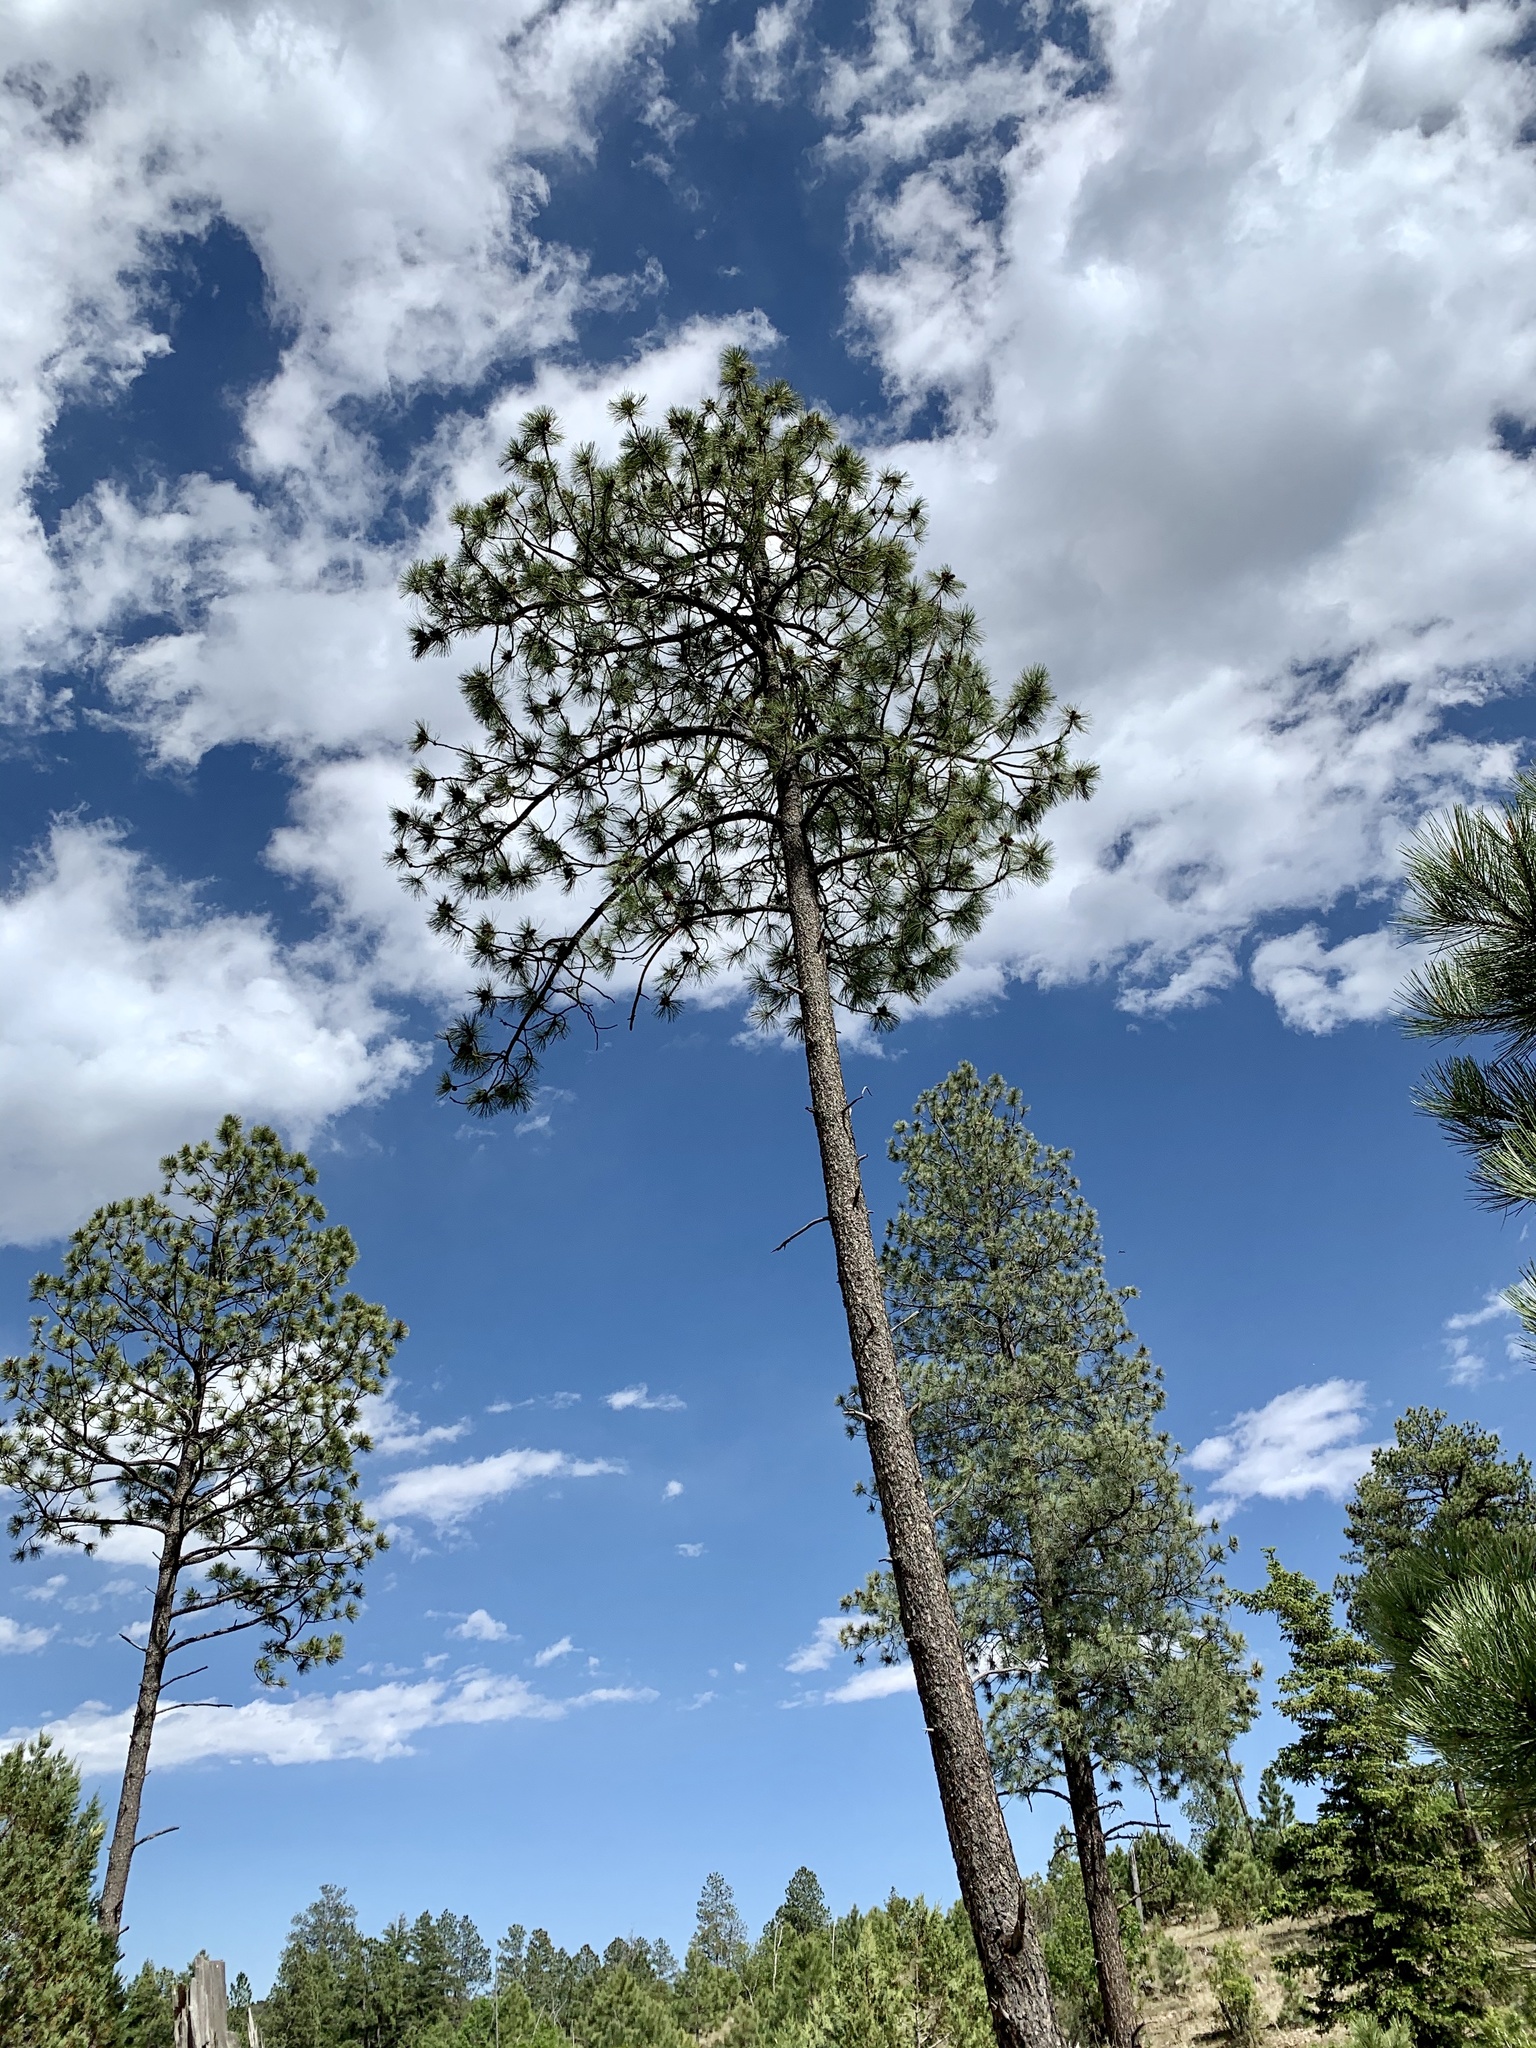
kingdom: Plantae
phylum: Tracheophyta
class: Pinopsida
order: Pinales
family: Pinaceae
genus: Pinus
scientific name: Pinus ponderosa
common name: Western yellow-pine
